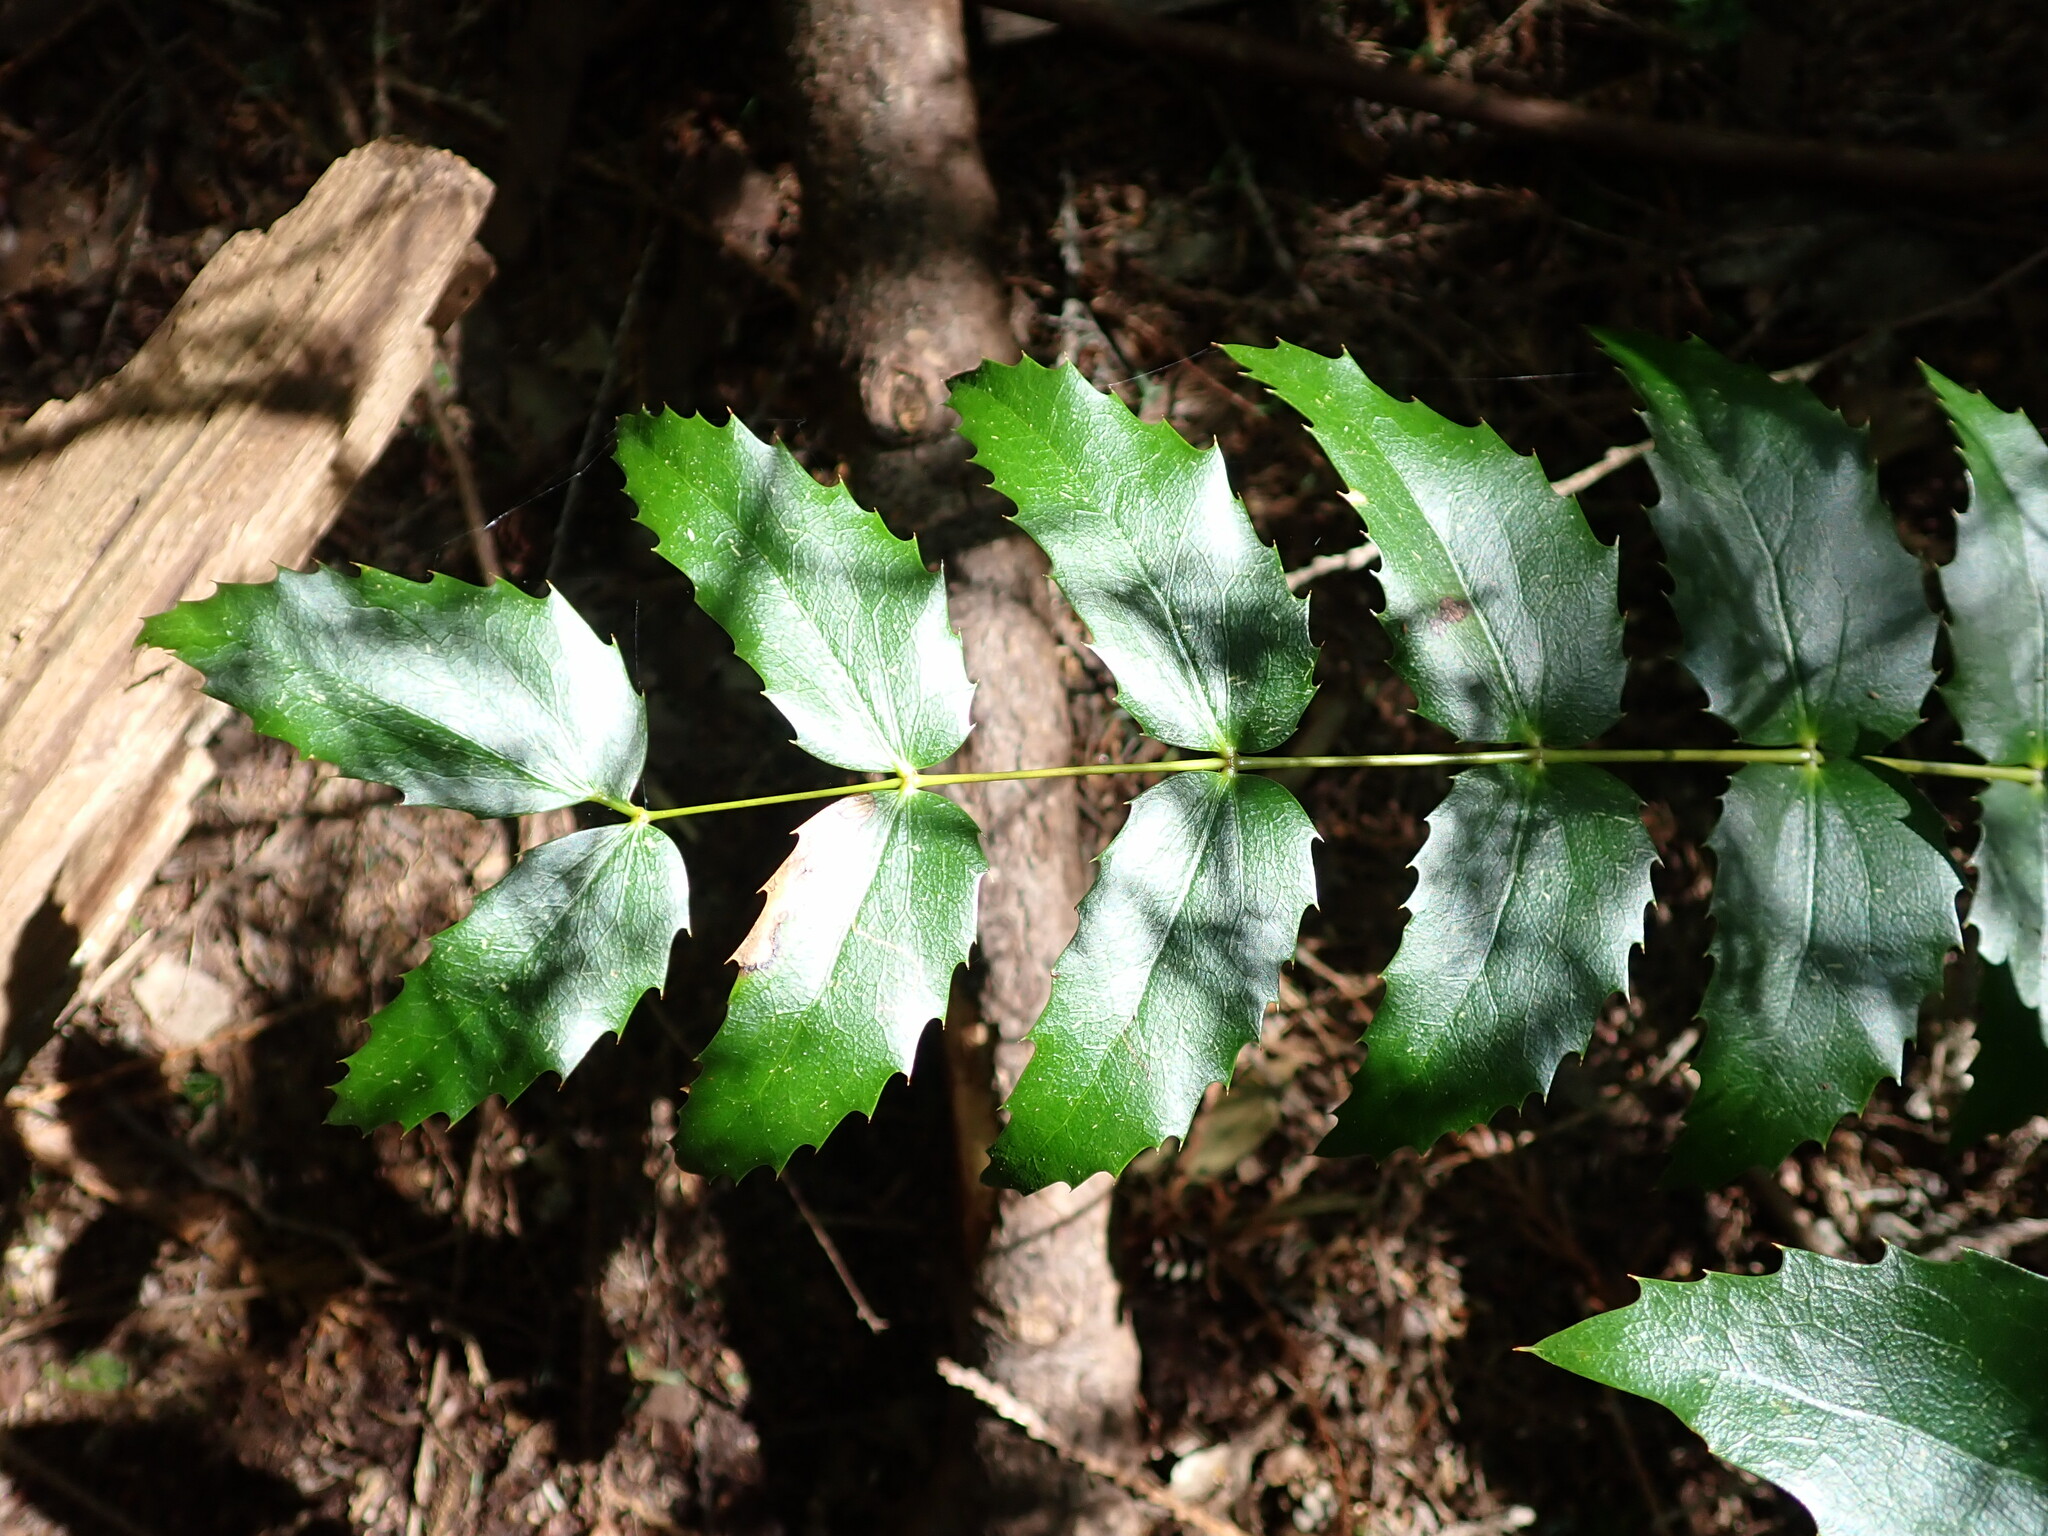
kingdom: Plantae
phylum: Tracheophyta
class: Magnoliopsida
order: Ranunculales
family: Berberidaceae
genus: Mahonia
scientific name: Mahonia nervosa
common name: Cascade oregon-grape
